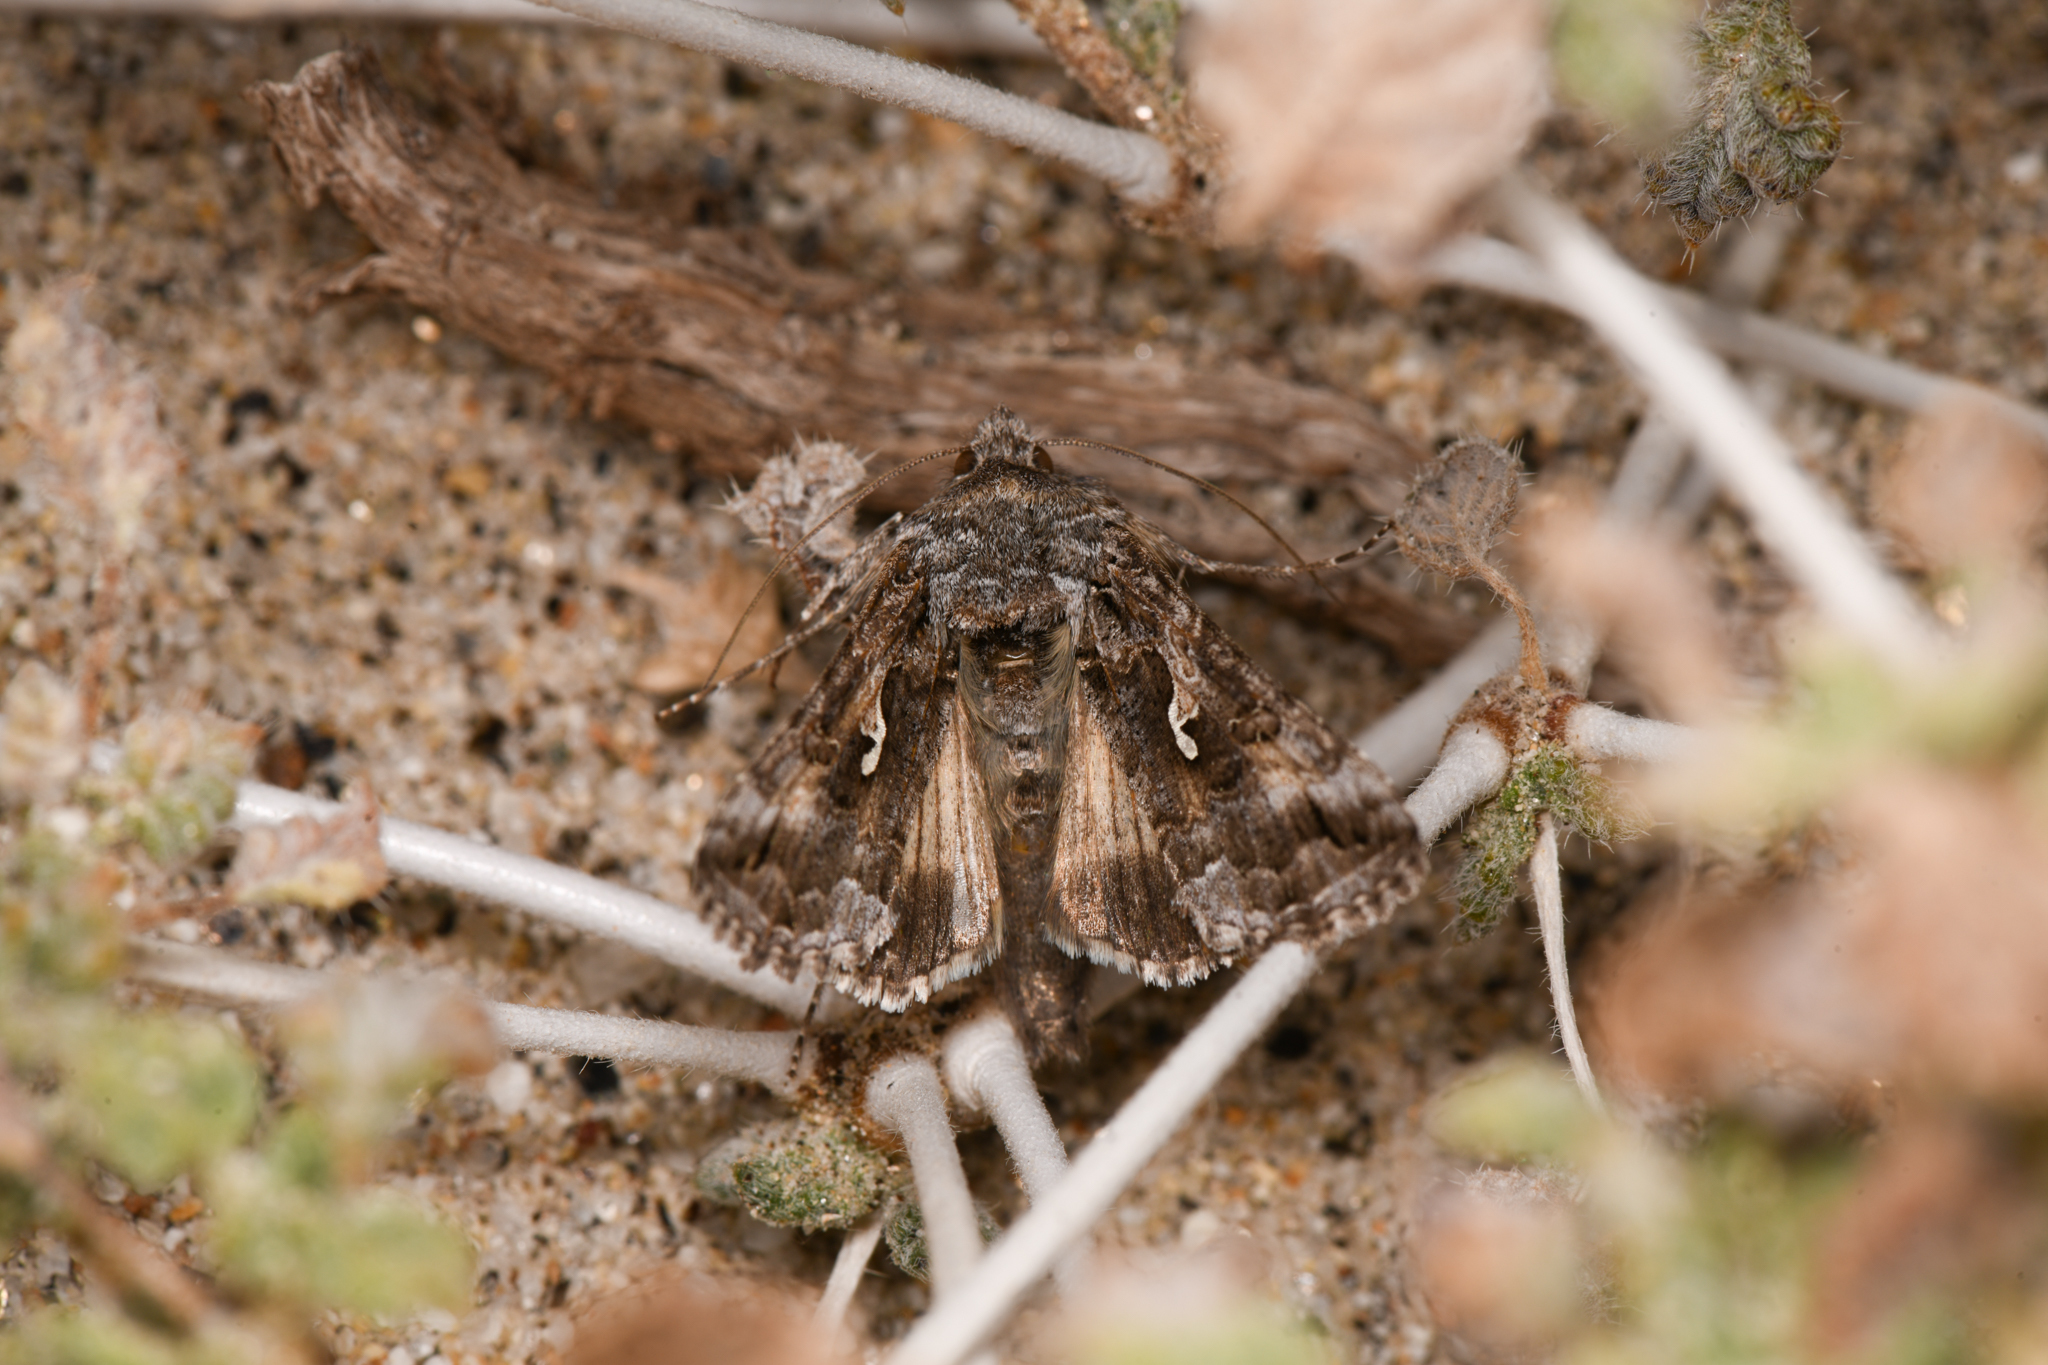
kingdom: Animalia
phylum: Arthropoda
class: Insecta
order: Lepidoptera
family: Noctuidae
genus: Autographa
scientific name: Autographa californica
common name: Alfalfa looper
